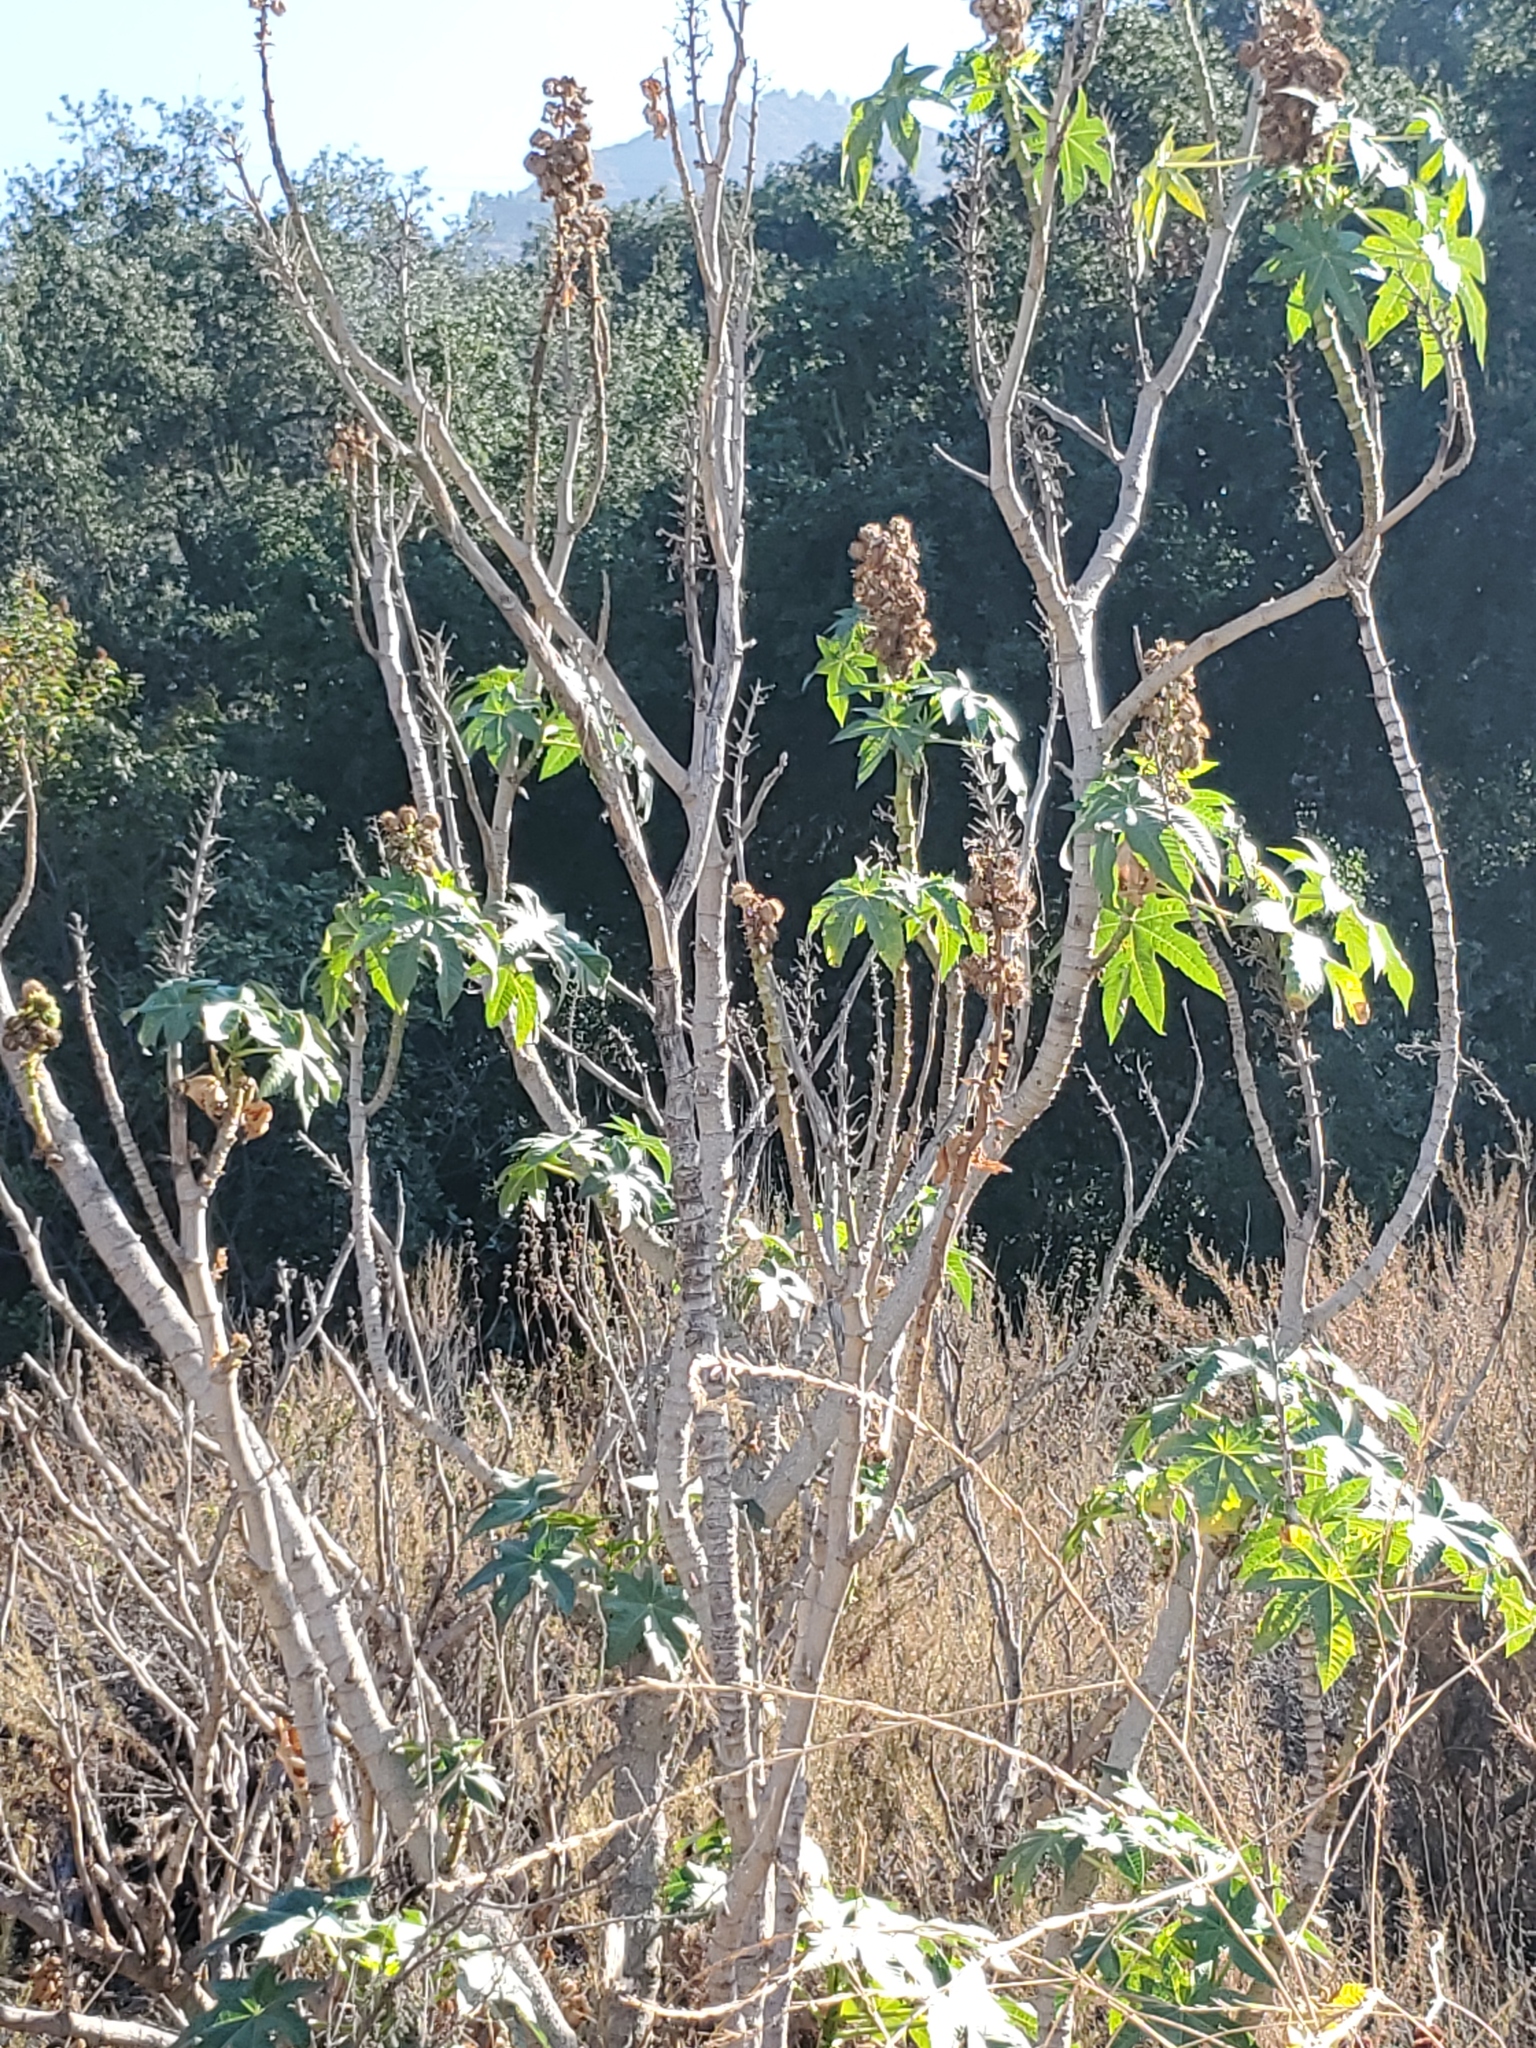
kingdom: Plantae
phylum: Tracheophyta
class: Magnoliopsida
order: Malpighiales
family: Euphorbiaceae
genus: Ricinus
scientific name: Ricinus communis
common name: Castor-oil-plant
